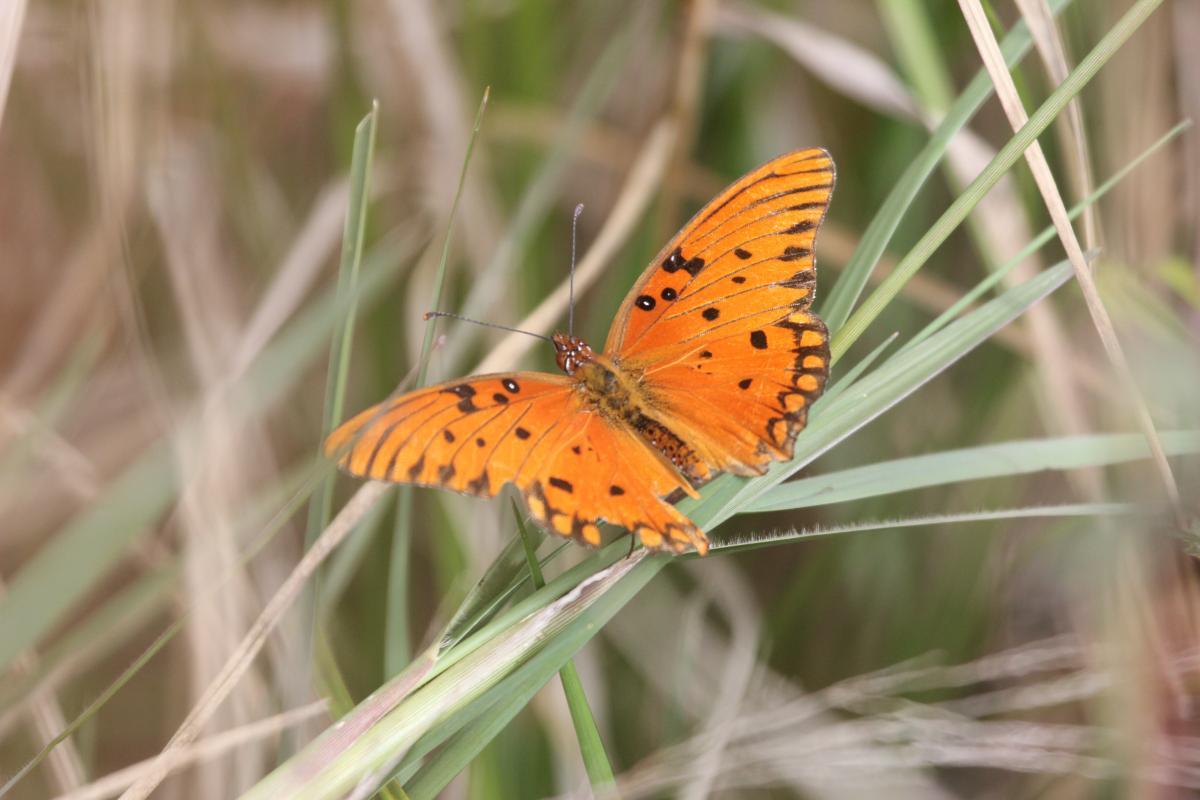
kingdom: Animalia
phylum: Arthropoda
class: Insecta
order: Lepidoptera
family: Nymphalidae
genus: Dione
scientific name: Dione vanillae
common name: Gulf fritillary
